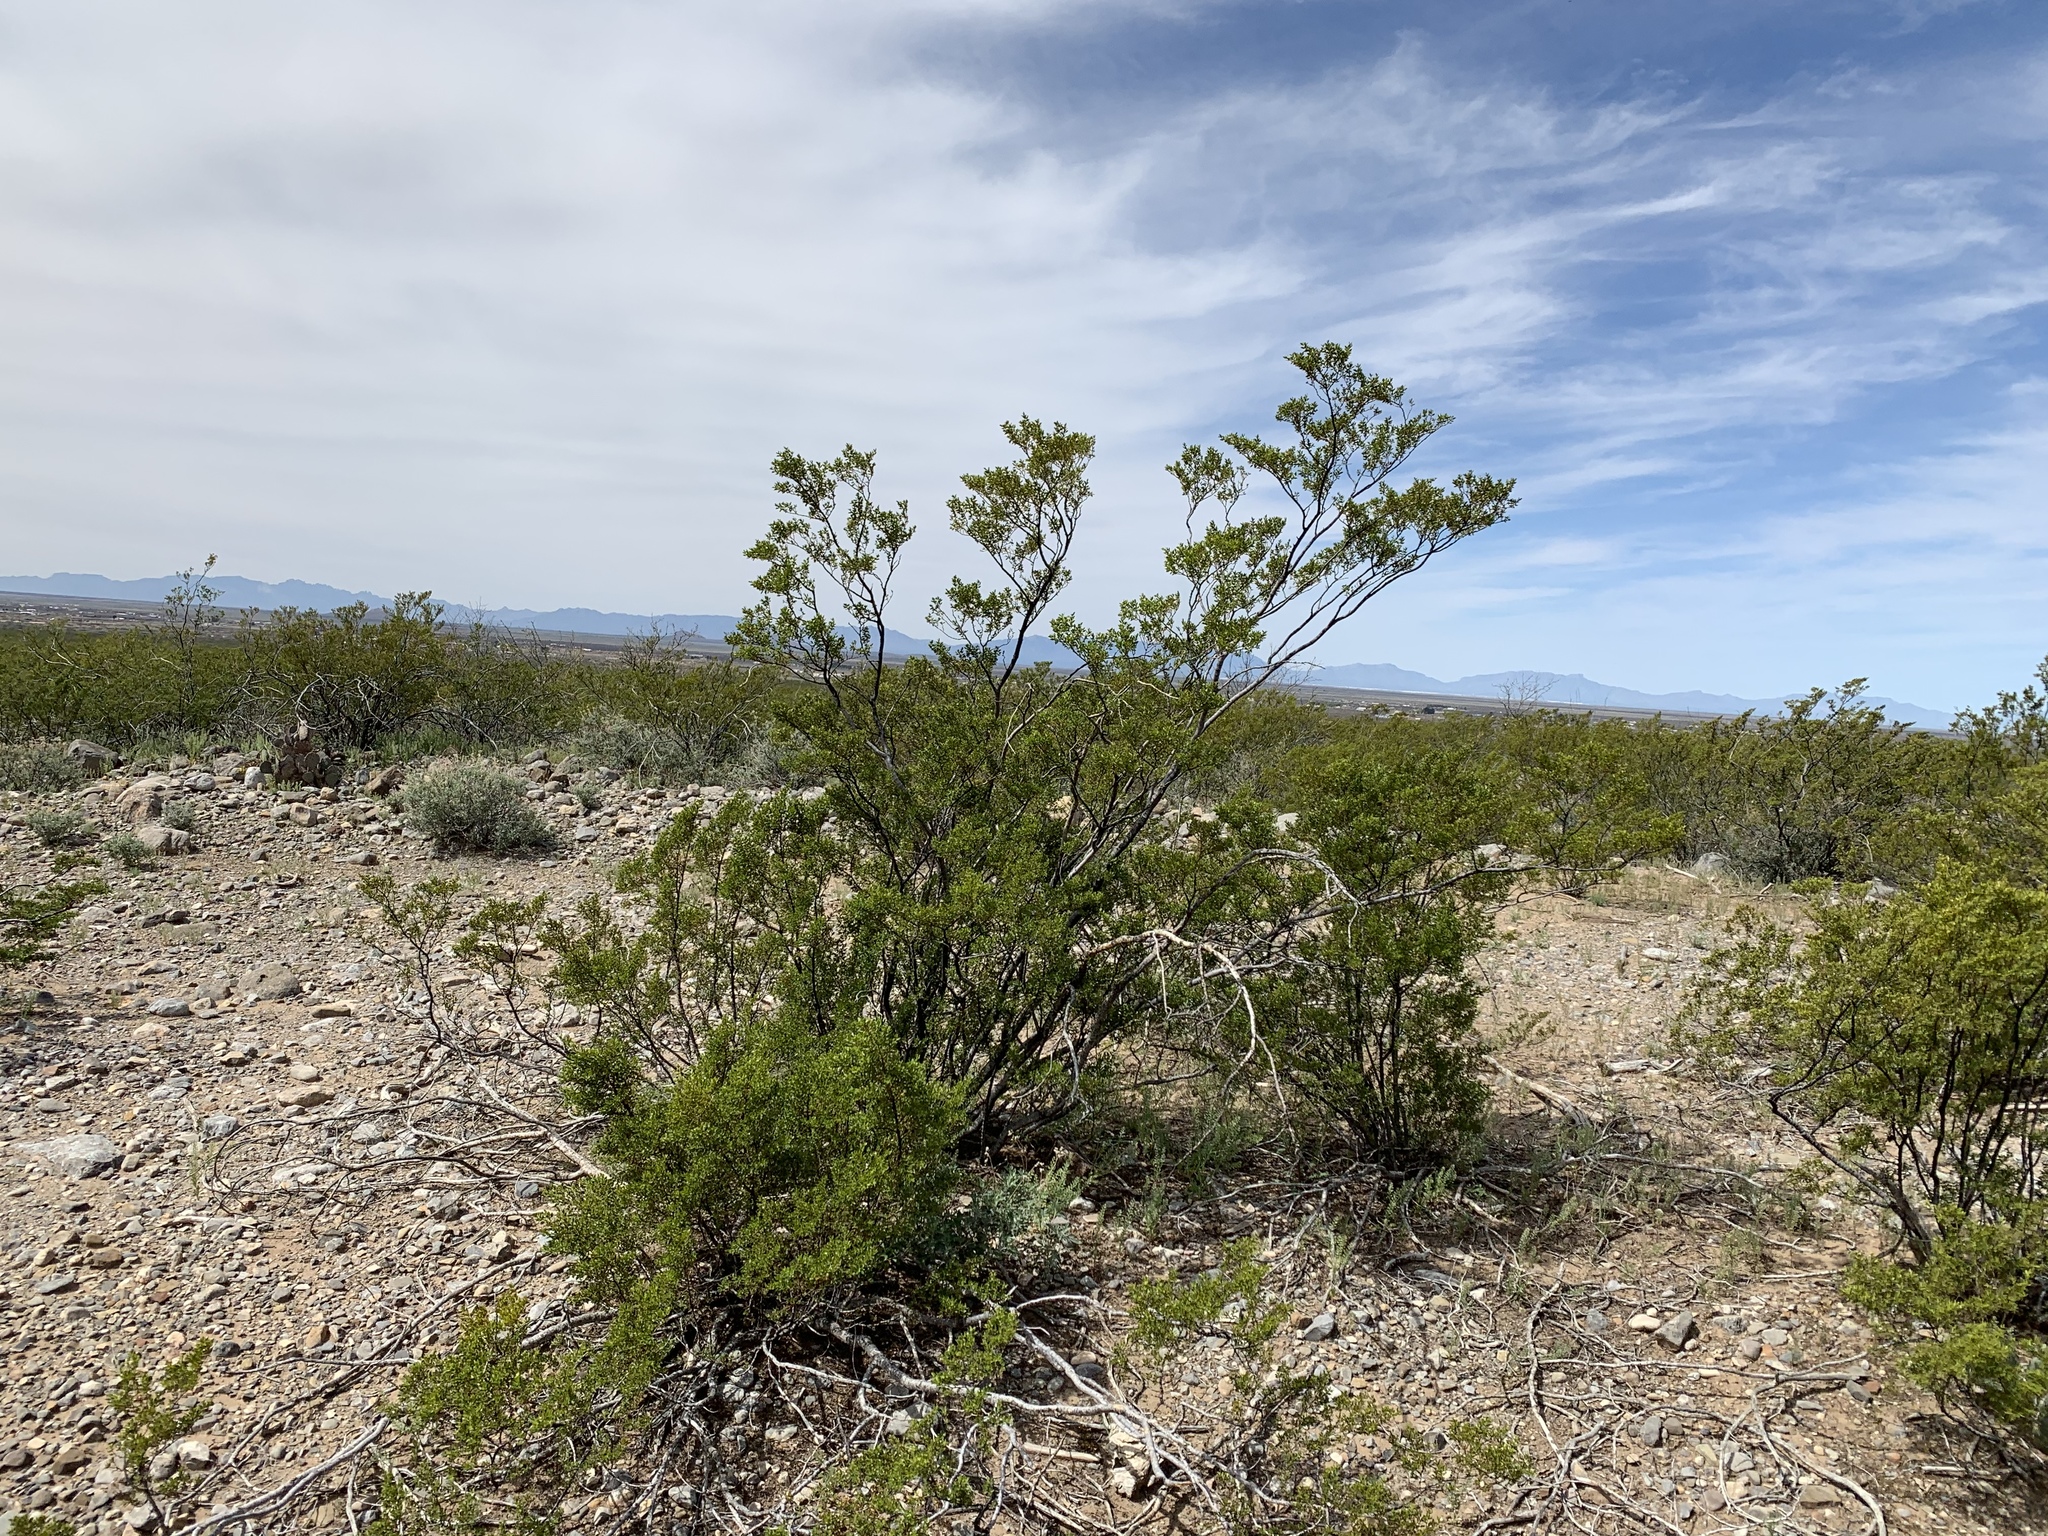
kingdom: Plantae
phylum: Tracheophyta
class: Magnoliopsida
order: Zygophyllales
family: Zygophyllaceae
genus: Larrea
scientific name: Larrea tridentata
